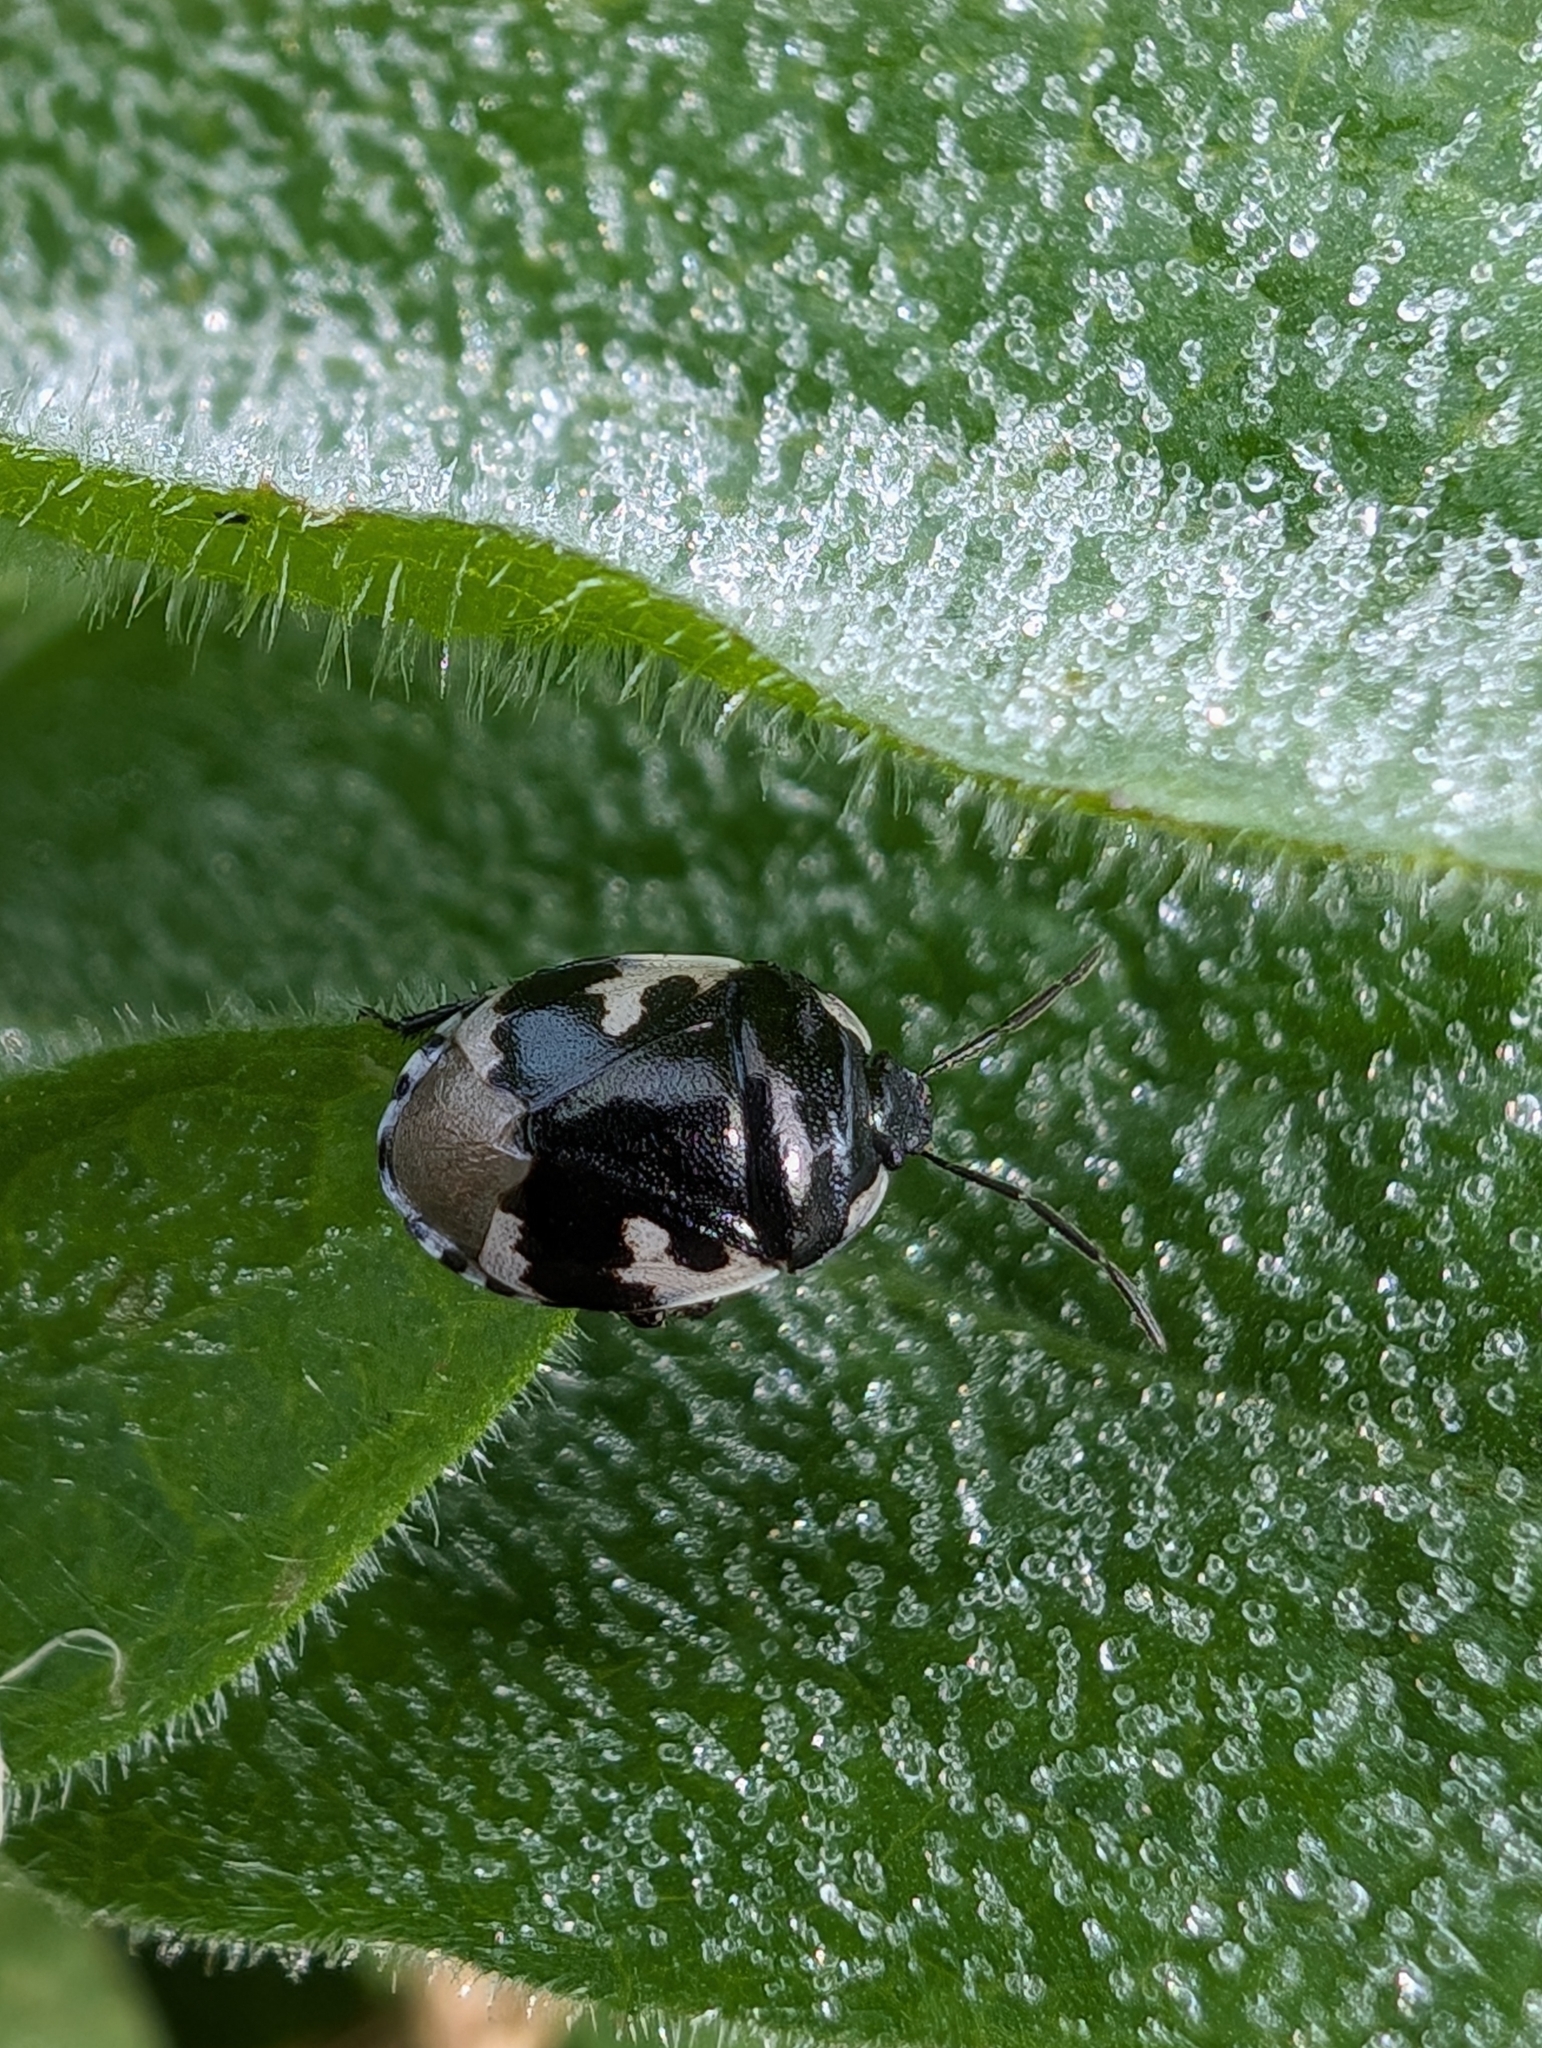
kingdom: Animalia
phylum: Arthropoda
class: Insecta
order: Hemiptera
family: Cydnidae
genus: Tritomegas
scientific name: Tritomegas bicolor
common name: Pied shieldbug
